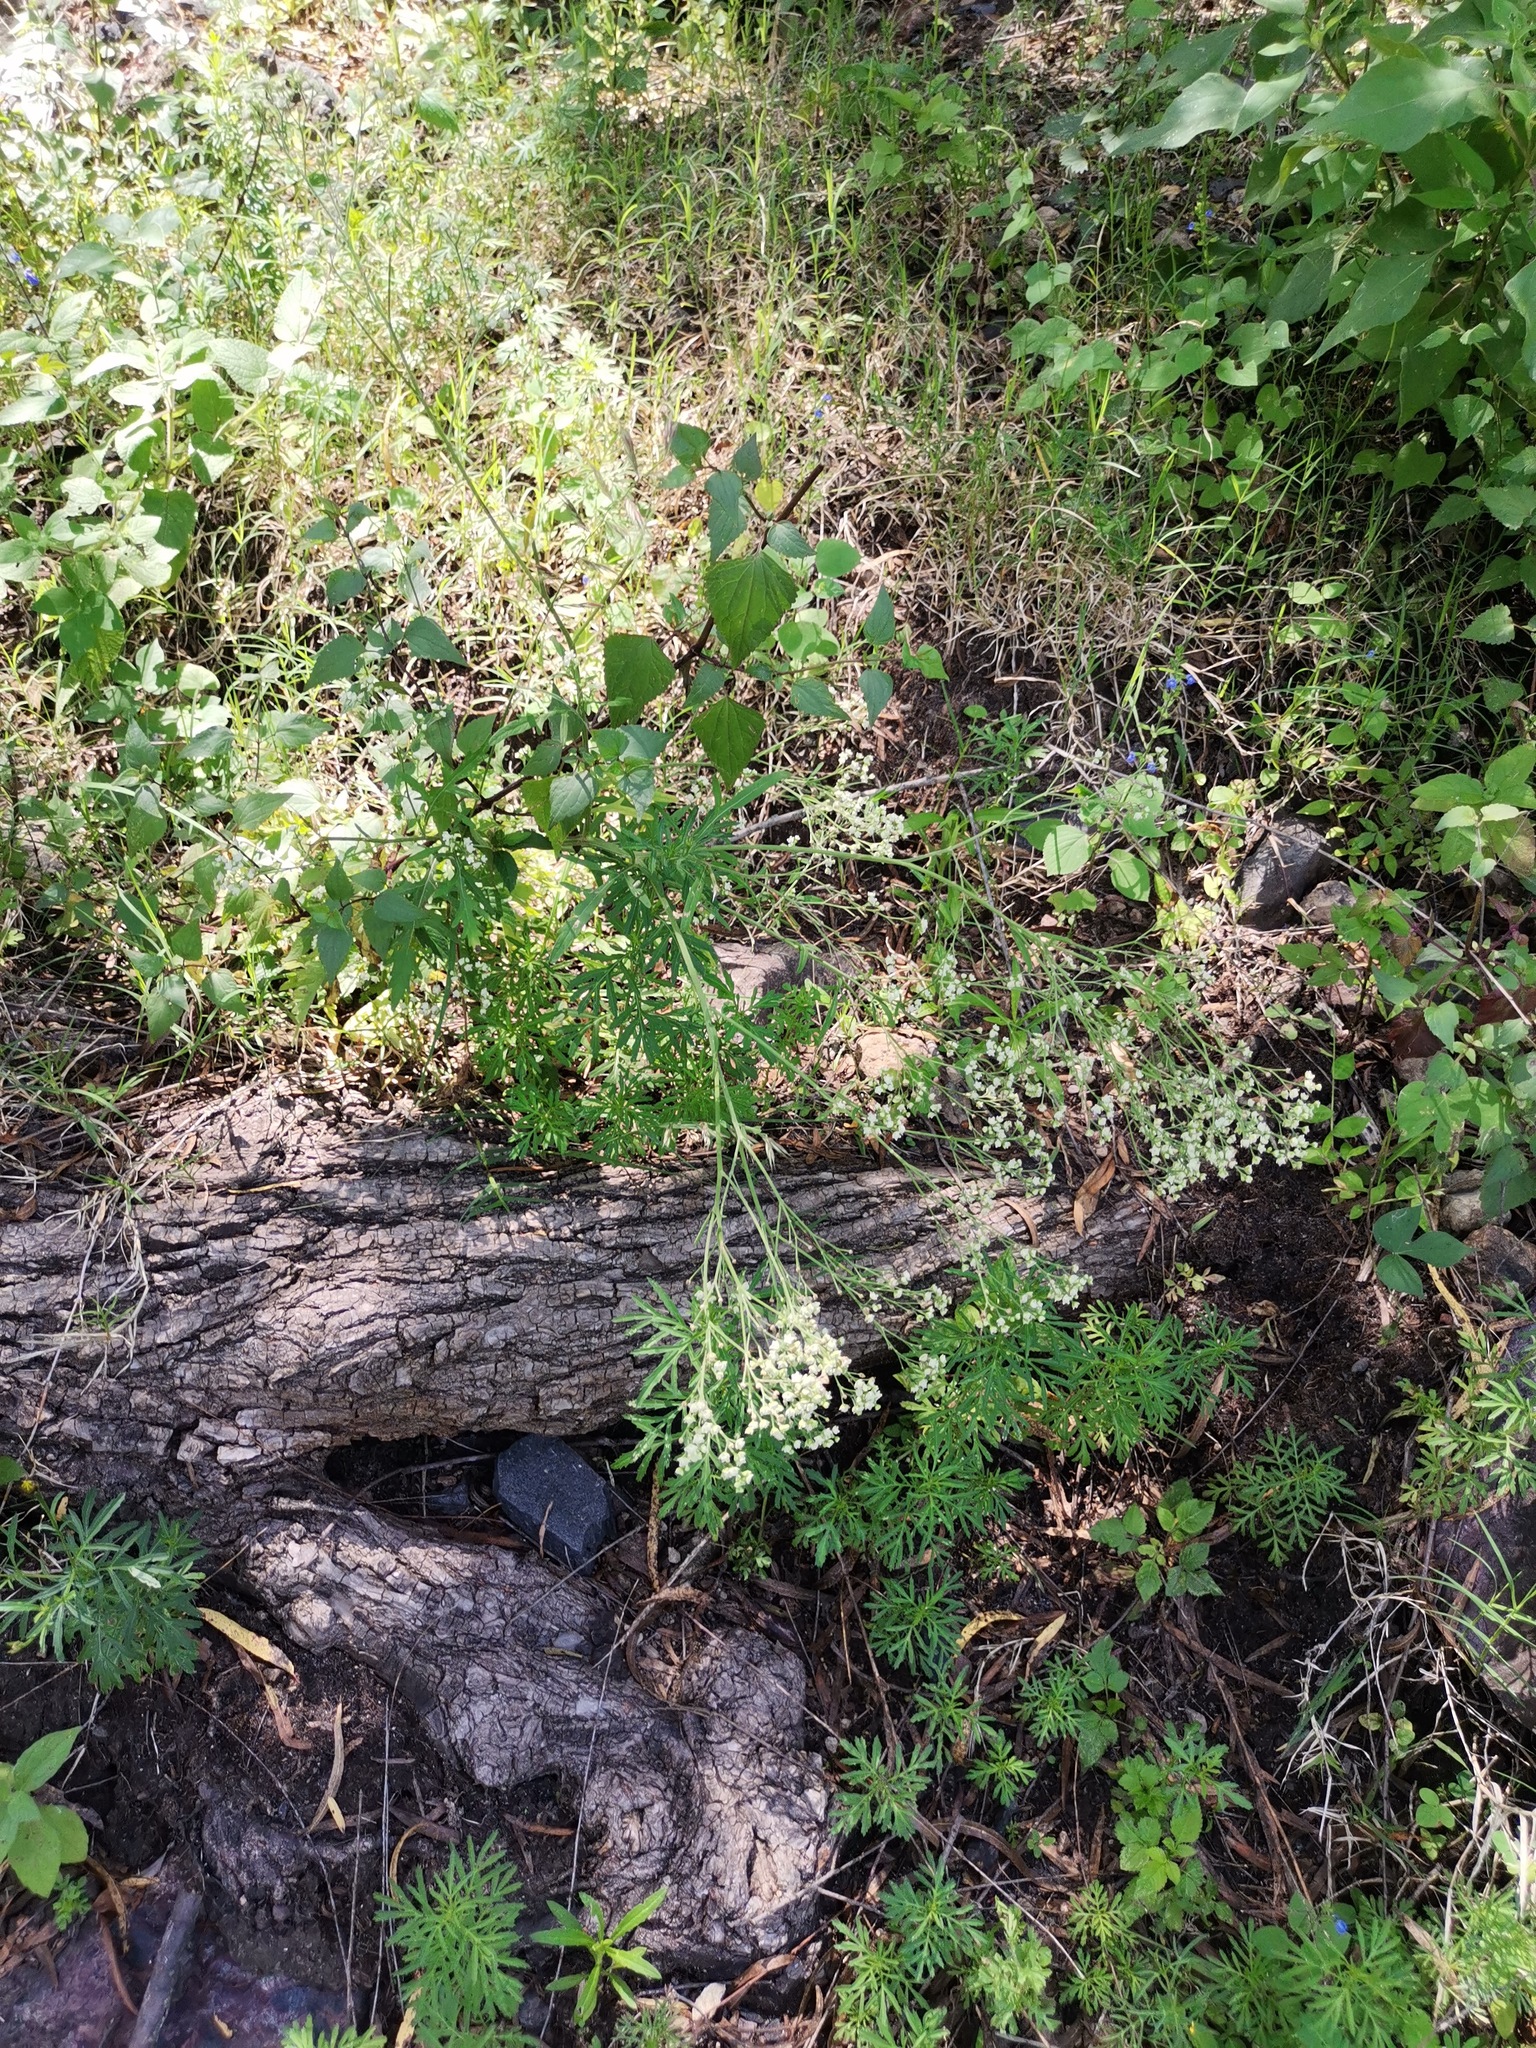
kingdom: Plantae
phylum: Tracheophyta
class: Magnoliopsida
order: Asterales
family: Asteraceae
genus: Parthenium
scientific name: Parthenium hysterophorus
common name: Santa maria feverfew
